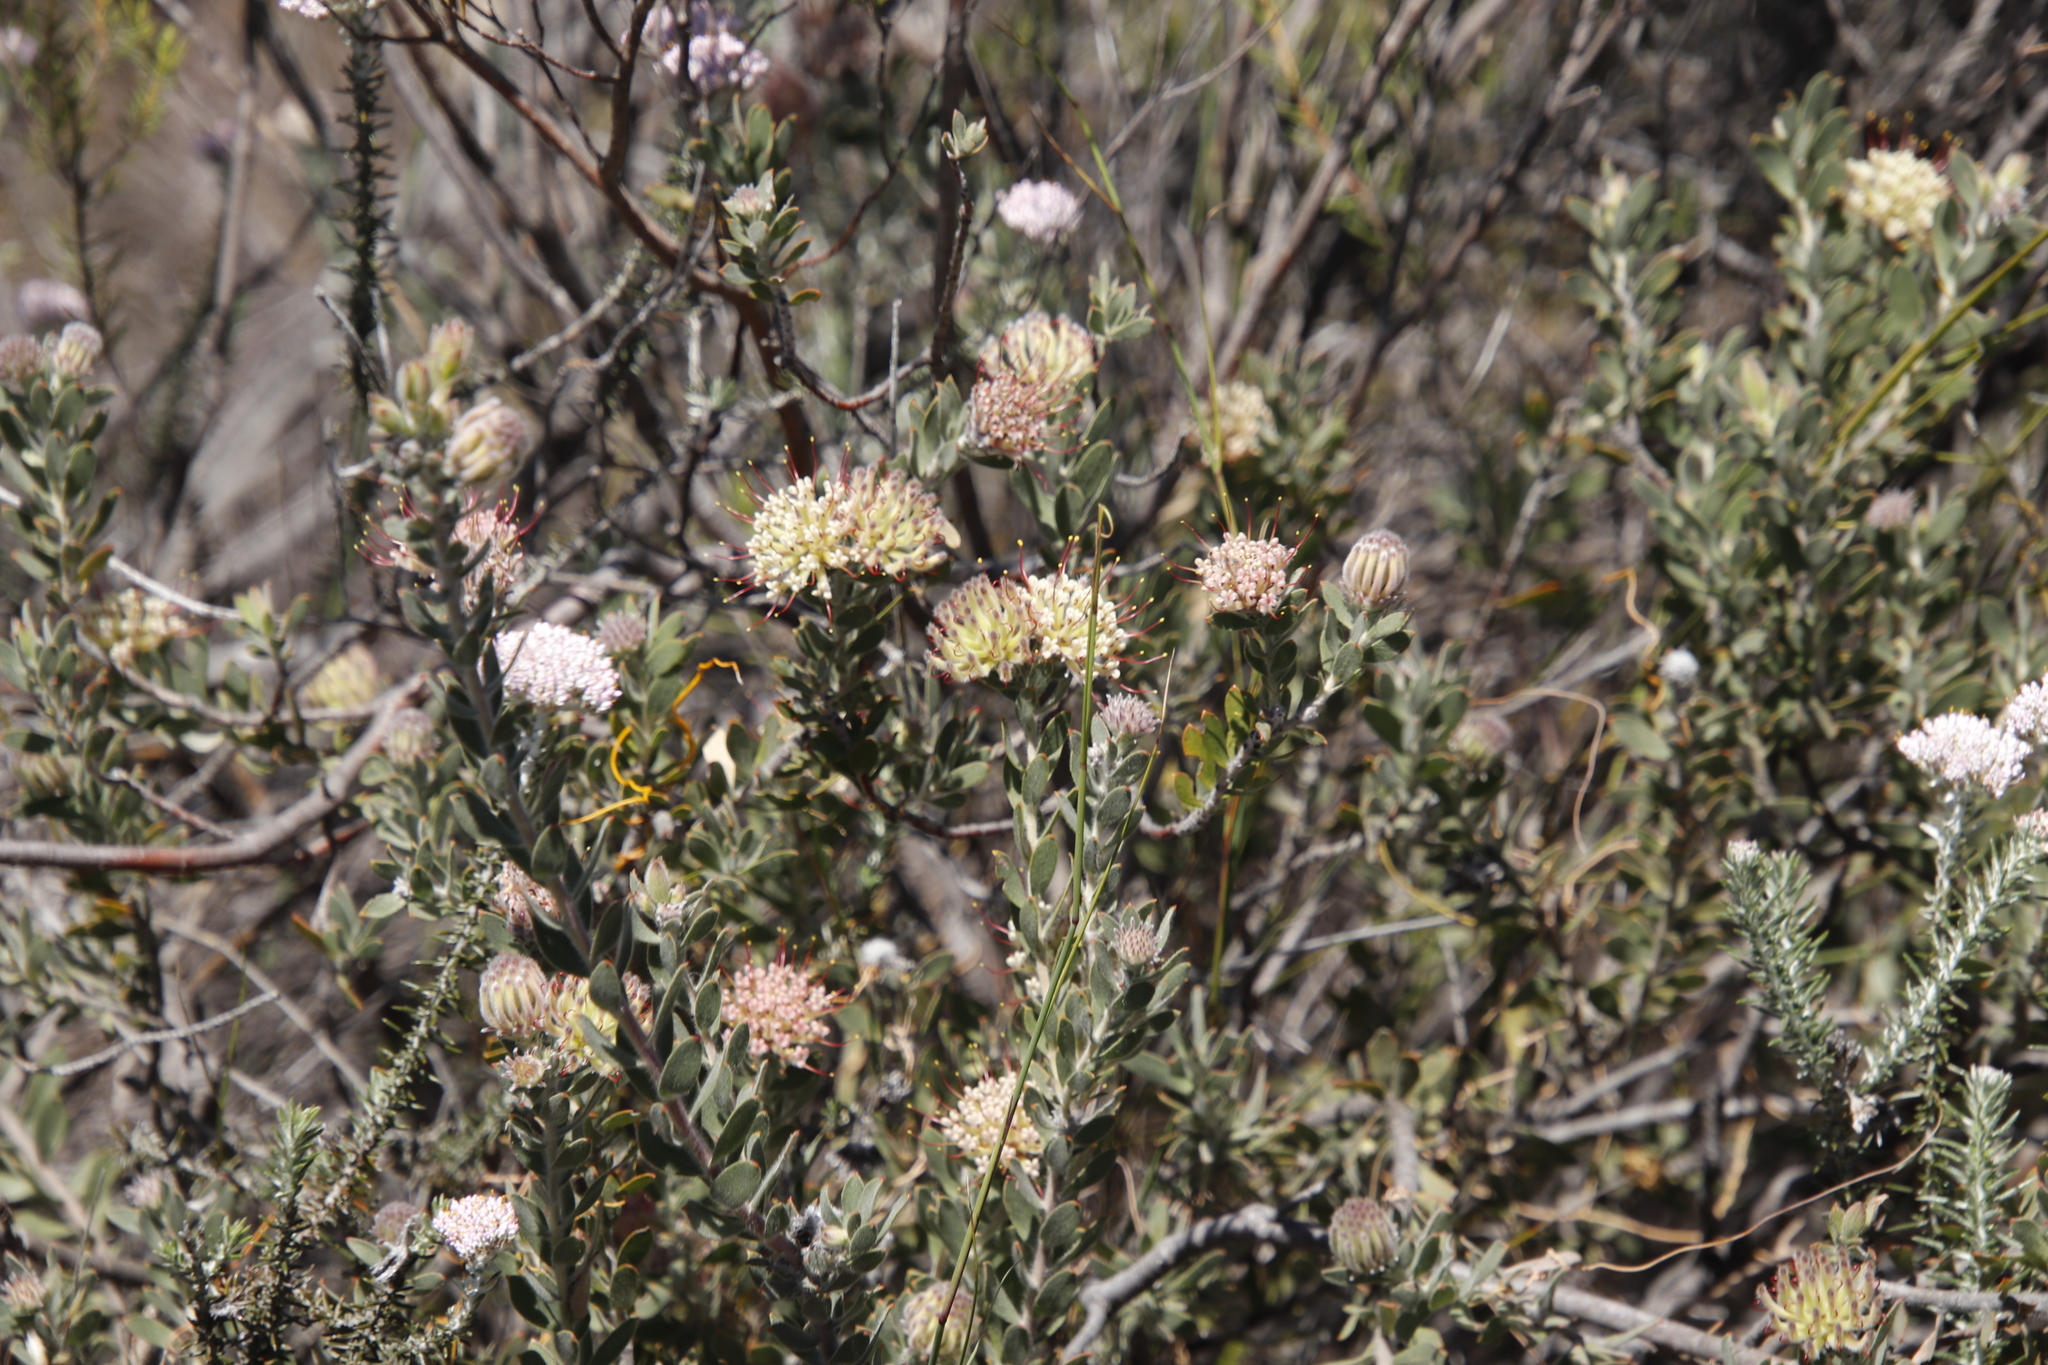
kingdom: Plantae
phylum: Tracheophyta
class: Magnoliopsida
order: Proteales
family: Proteaceae
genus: Leucospermum
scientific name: Leucospermum calligerum
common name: Arid pincushion
